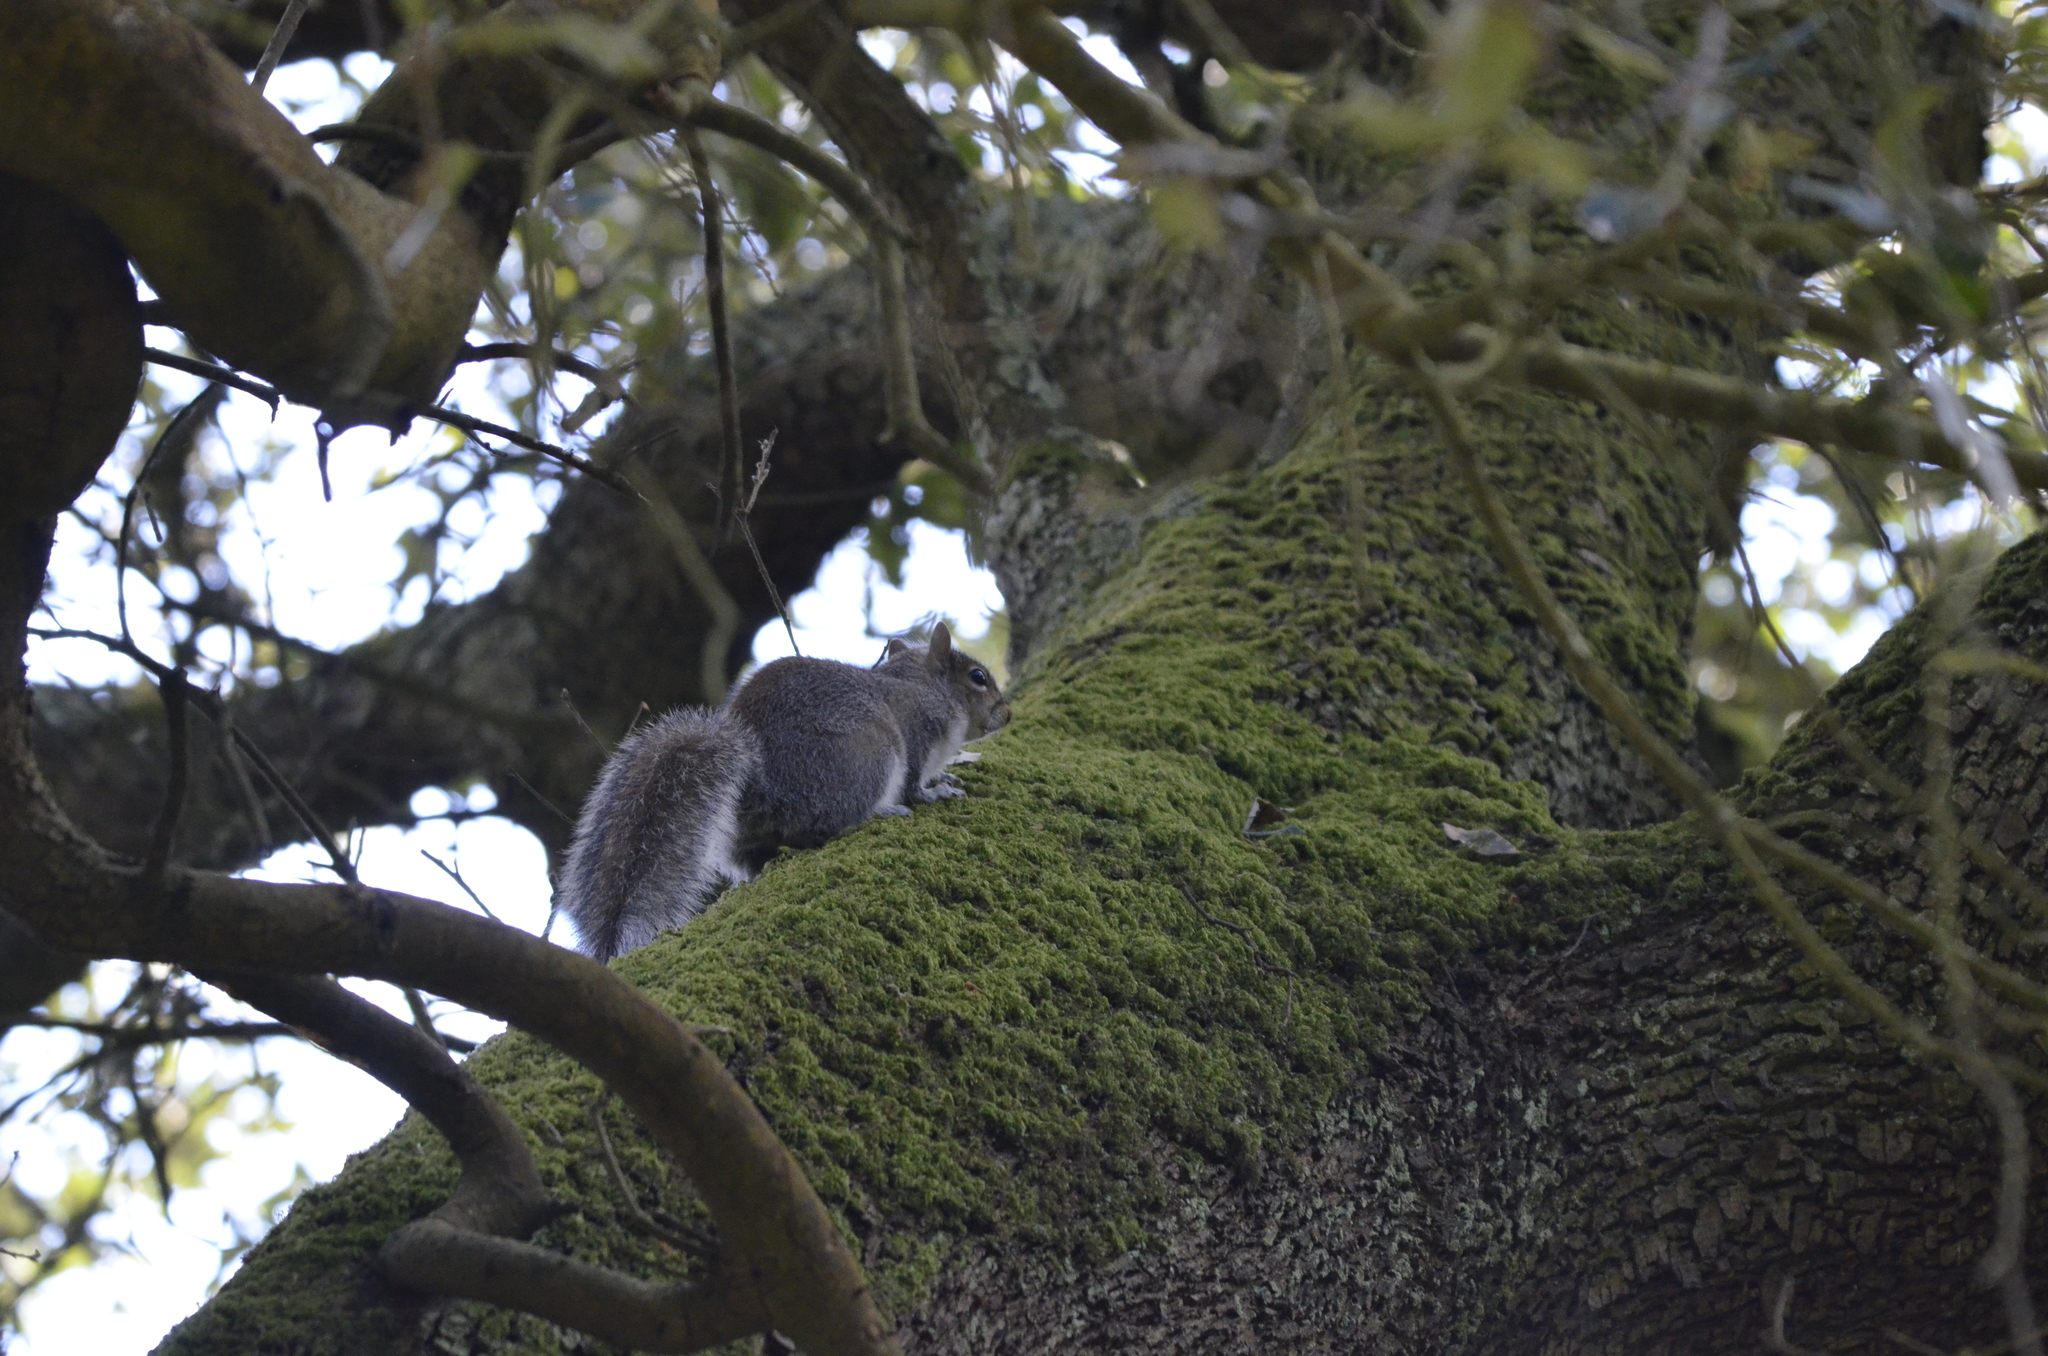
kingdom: Animalia
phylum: Chordata
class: Mammalia
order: Rodentia
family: Sciuridae
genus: Sciurus
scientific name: Sciurus carolinensis
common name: Eastern gray squirrel
